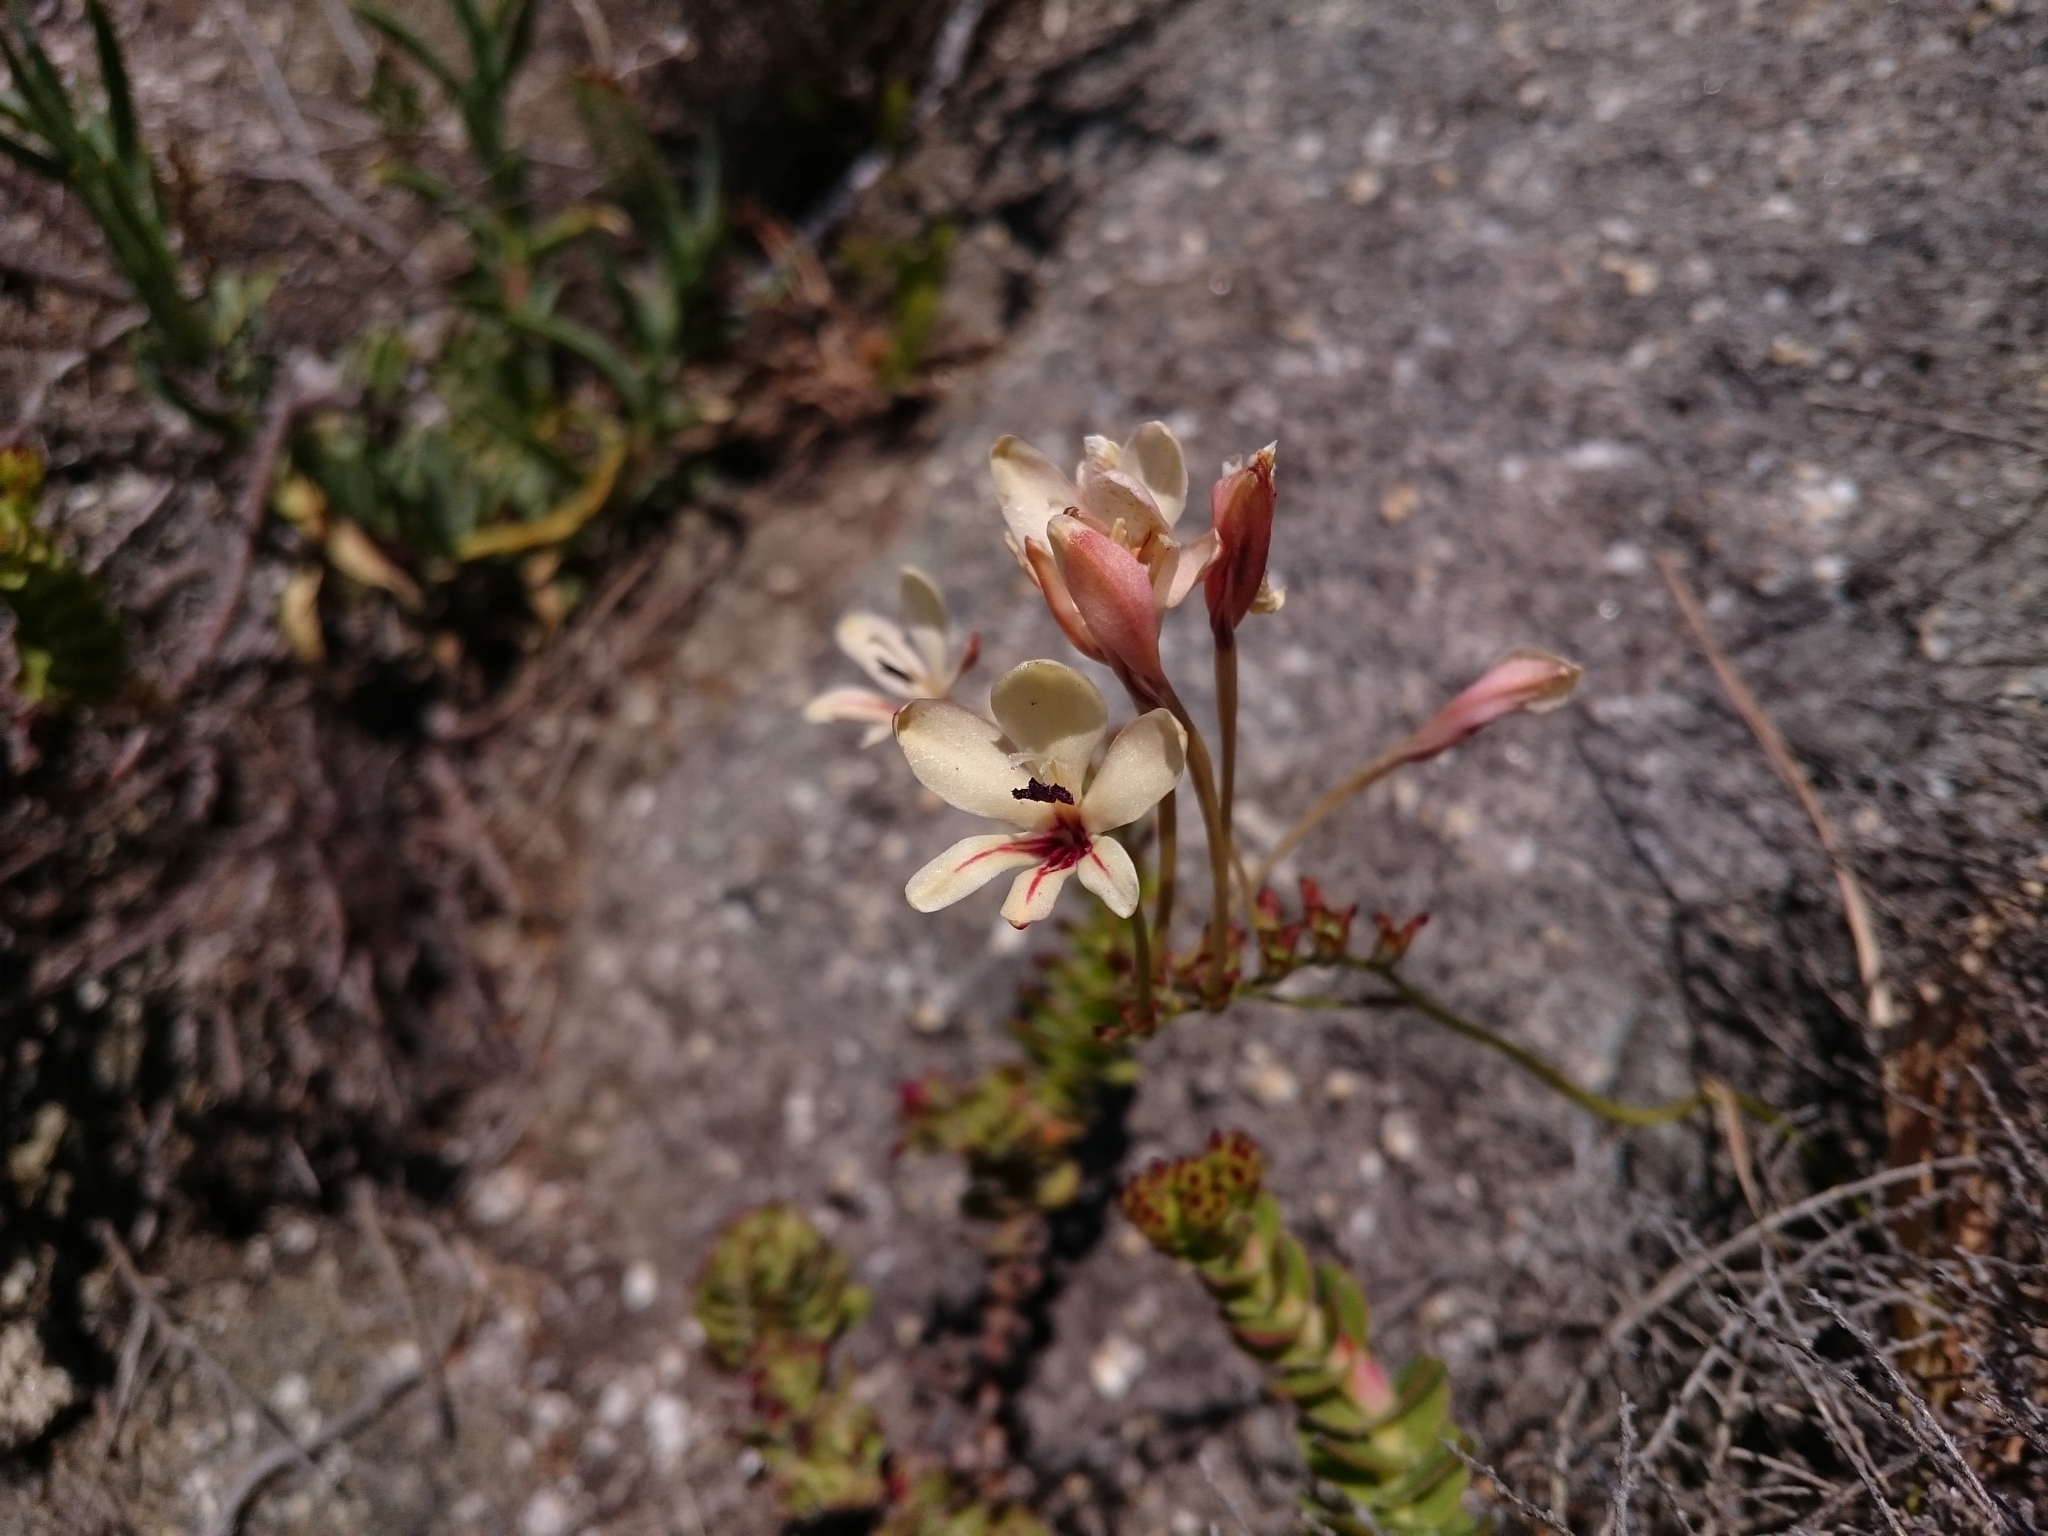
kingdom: Plantae
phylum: Tracheophyta
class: Liliopsida
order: Asparagales
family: Iridaceae
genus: Tritonia
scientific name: Tritonia undulata
